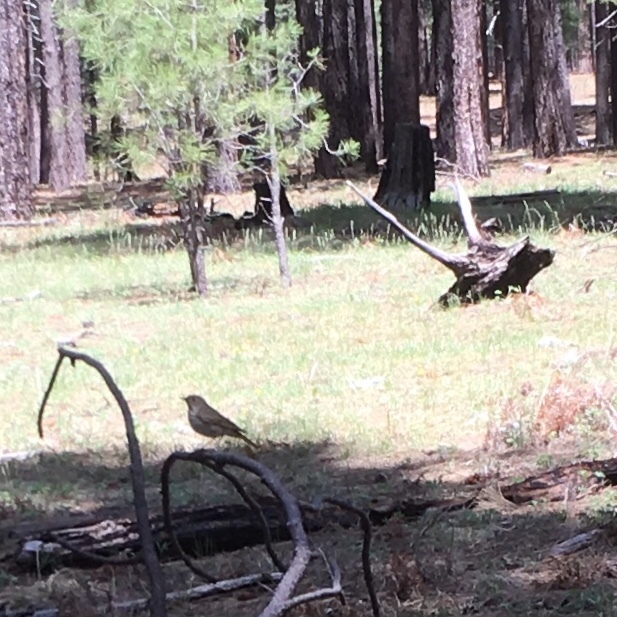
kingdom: Animalia
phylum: Chordata
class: Aves
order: Passeriformes
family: Turdidae
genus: Catharus
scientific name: Catharus guttatus
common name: Hermit thrush
